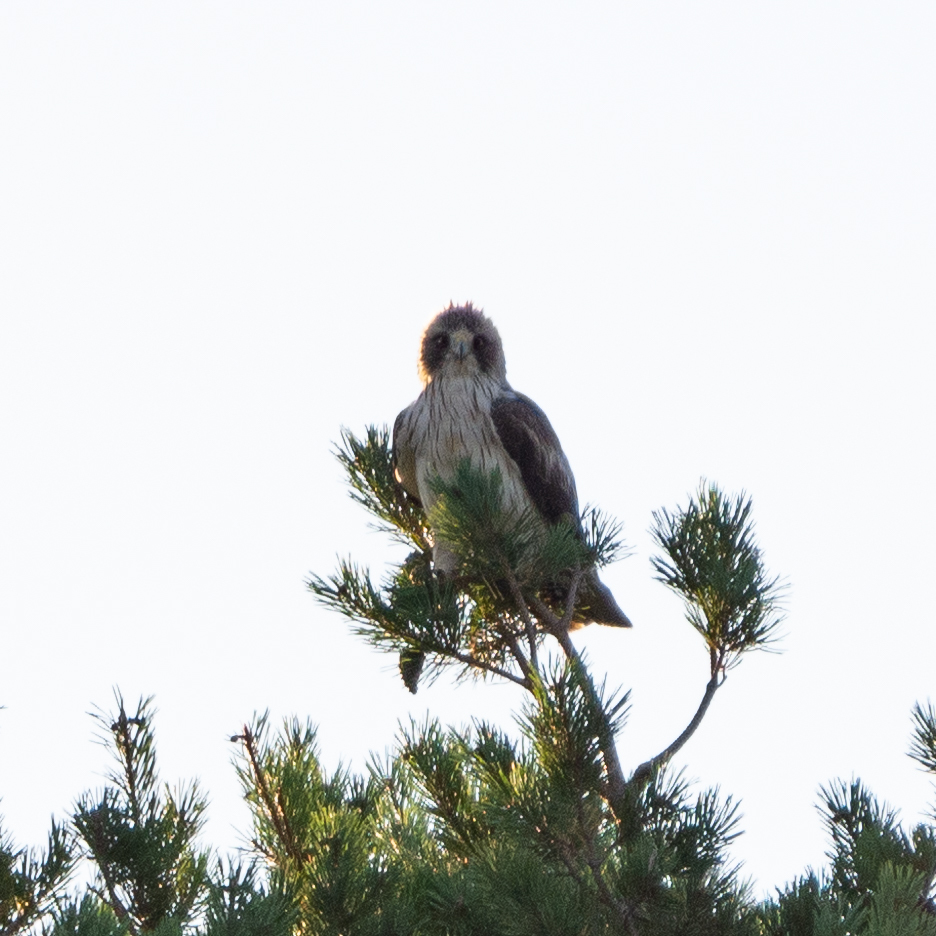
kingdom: Animalia
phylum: Chordata
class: Aves
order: Accipitriformes
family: Accipitridae
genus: Hieraaetus
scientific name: Hieraaetus pennatus
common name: Booted eagle
